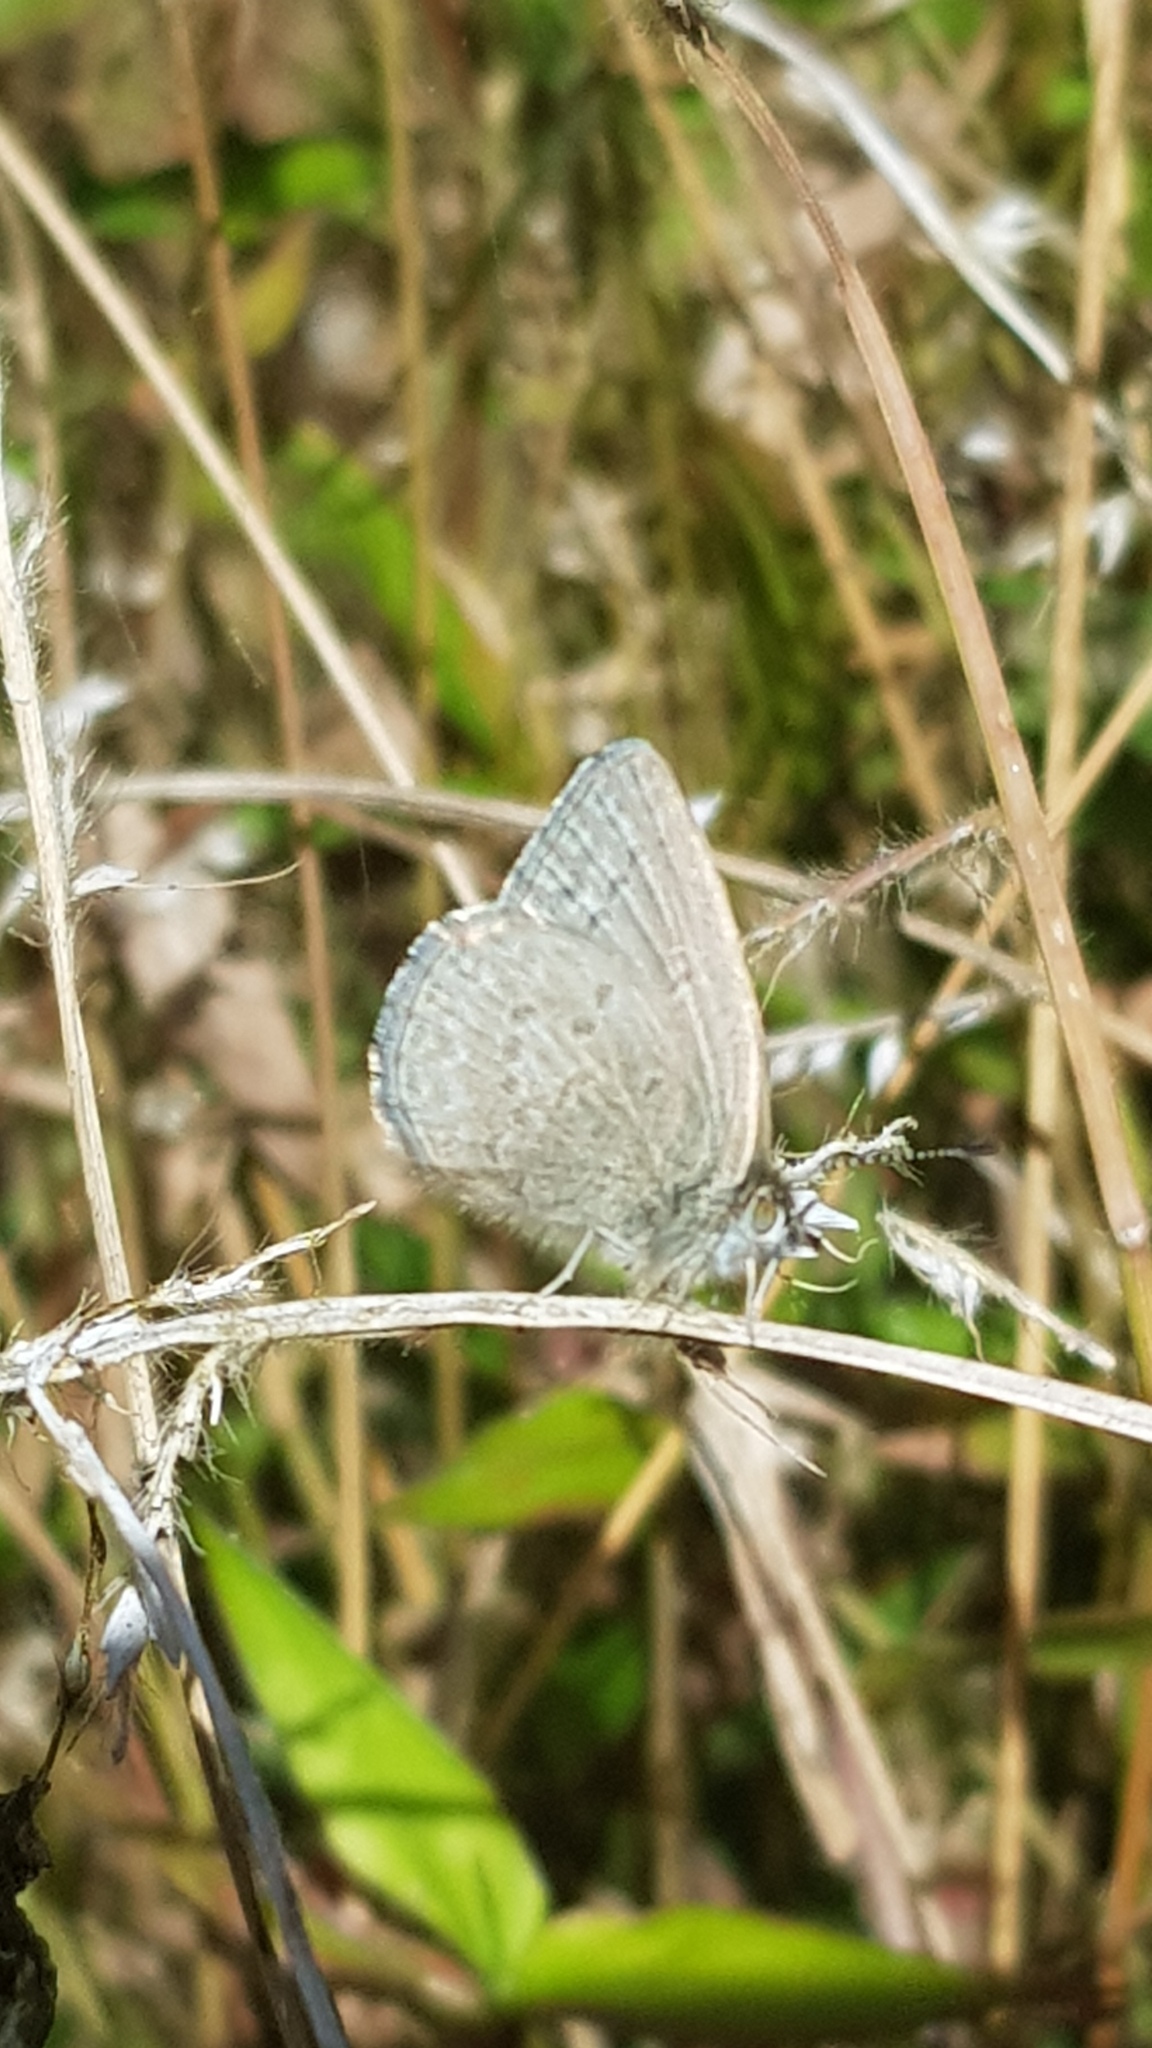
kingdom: Animalia
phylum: Arthropoda
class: Insecta
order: Lepidoptera
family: Lycaenidae
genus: Zizina
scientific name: Zizina labradus
